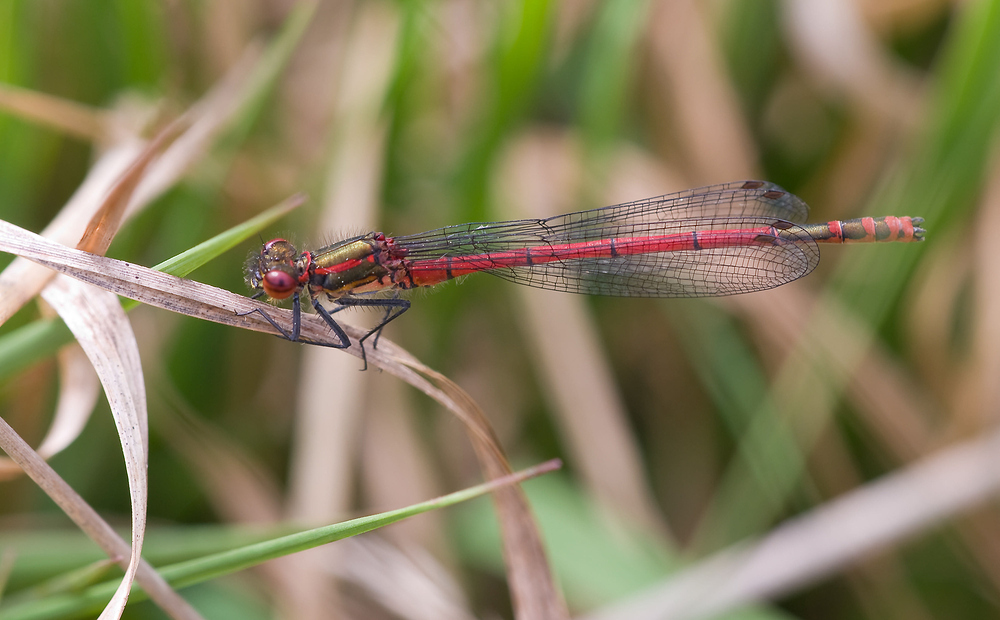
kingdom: Animalia
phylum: Arthropoda
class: Insecta
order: Odonata
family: Coenagrionidae
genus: Pyrrhosoma
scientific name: Pyrrhosoma nymphula
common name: Large red damsel
